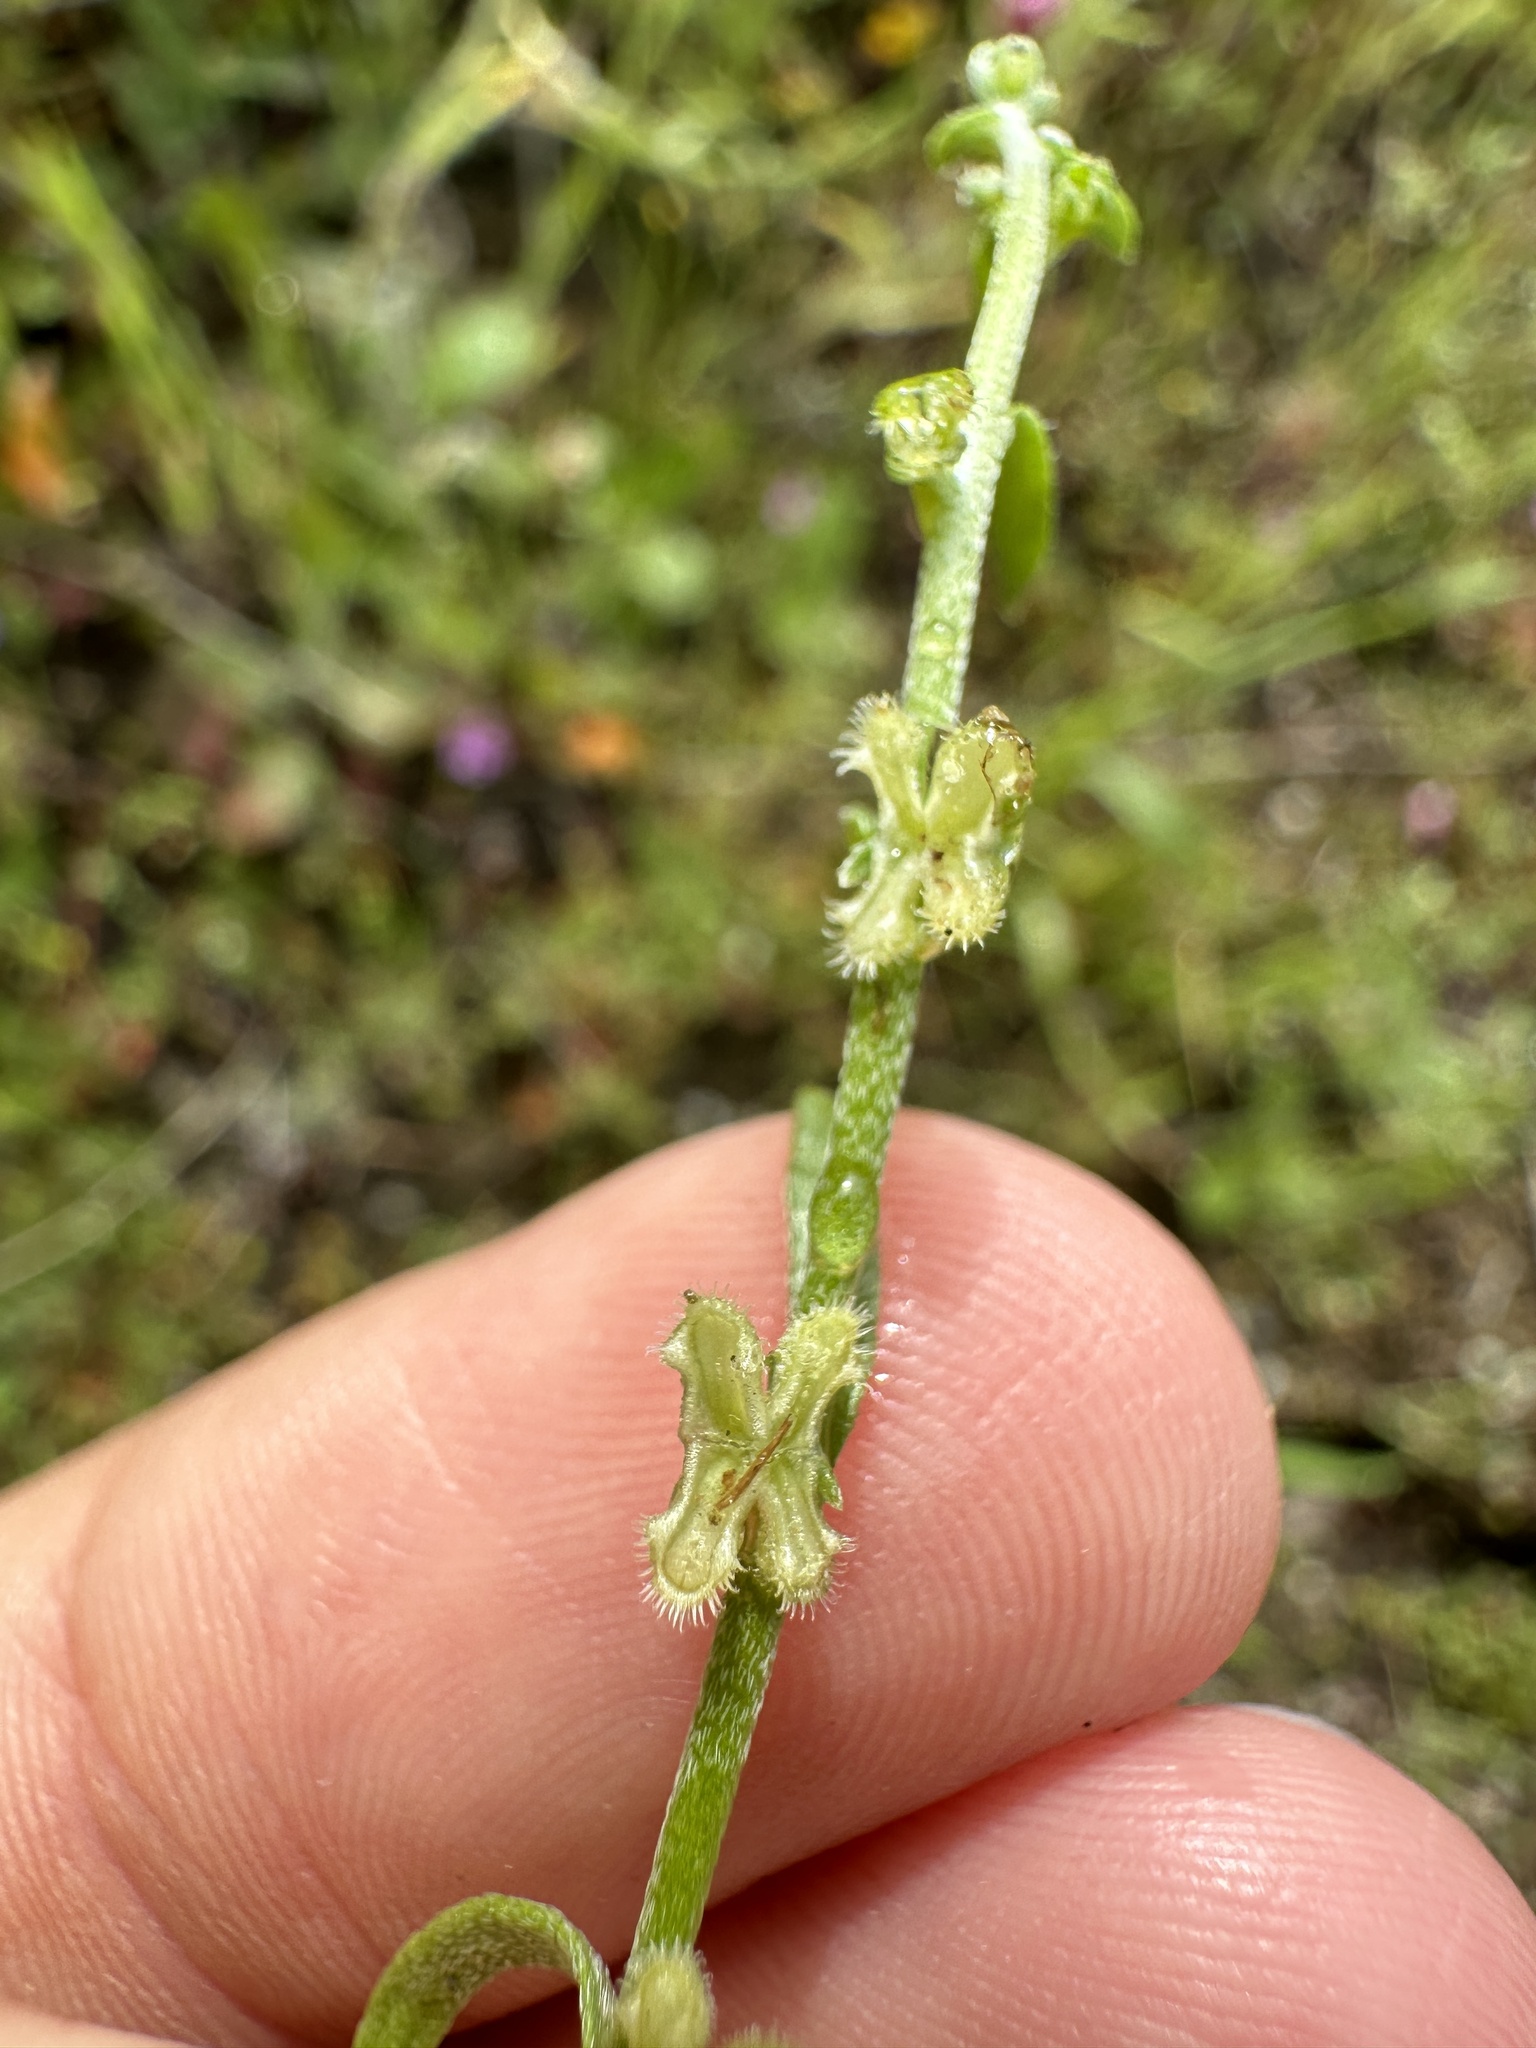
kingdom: Plantae
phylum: Tracheophyta
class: Magnoliopsida
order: Boraginales
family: Boraginaceae
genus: Pectocarya
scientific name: Pectocarya penicillata
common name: Short-leaved combseed
